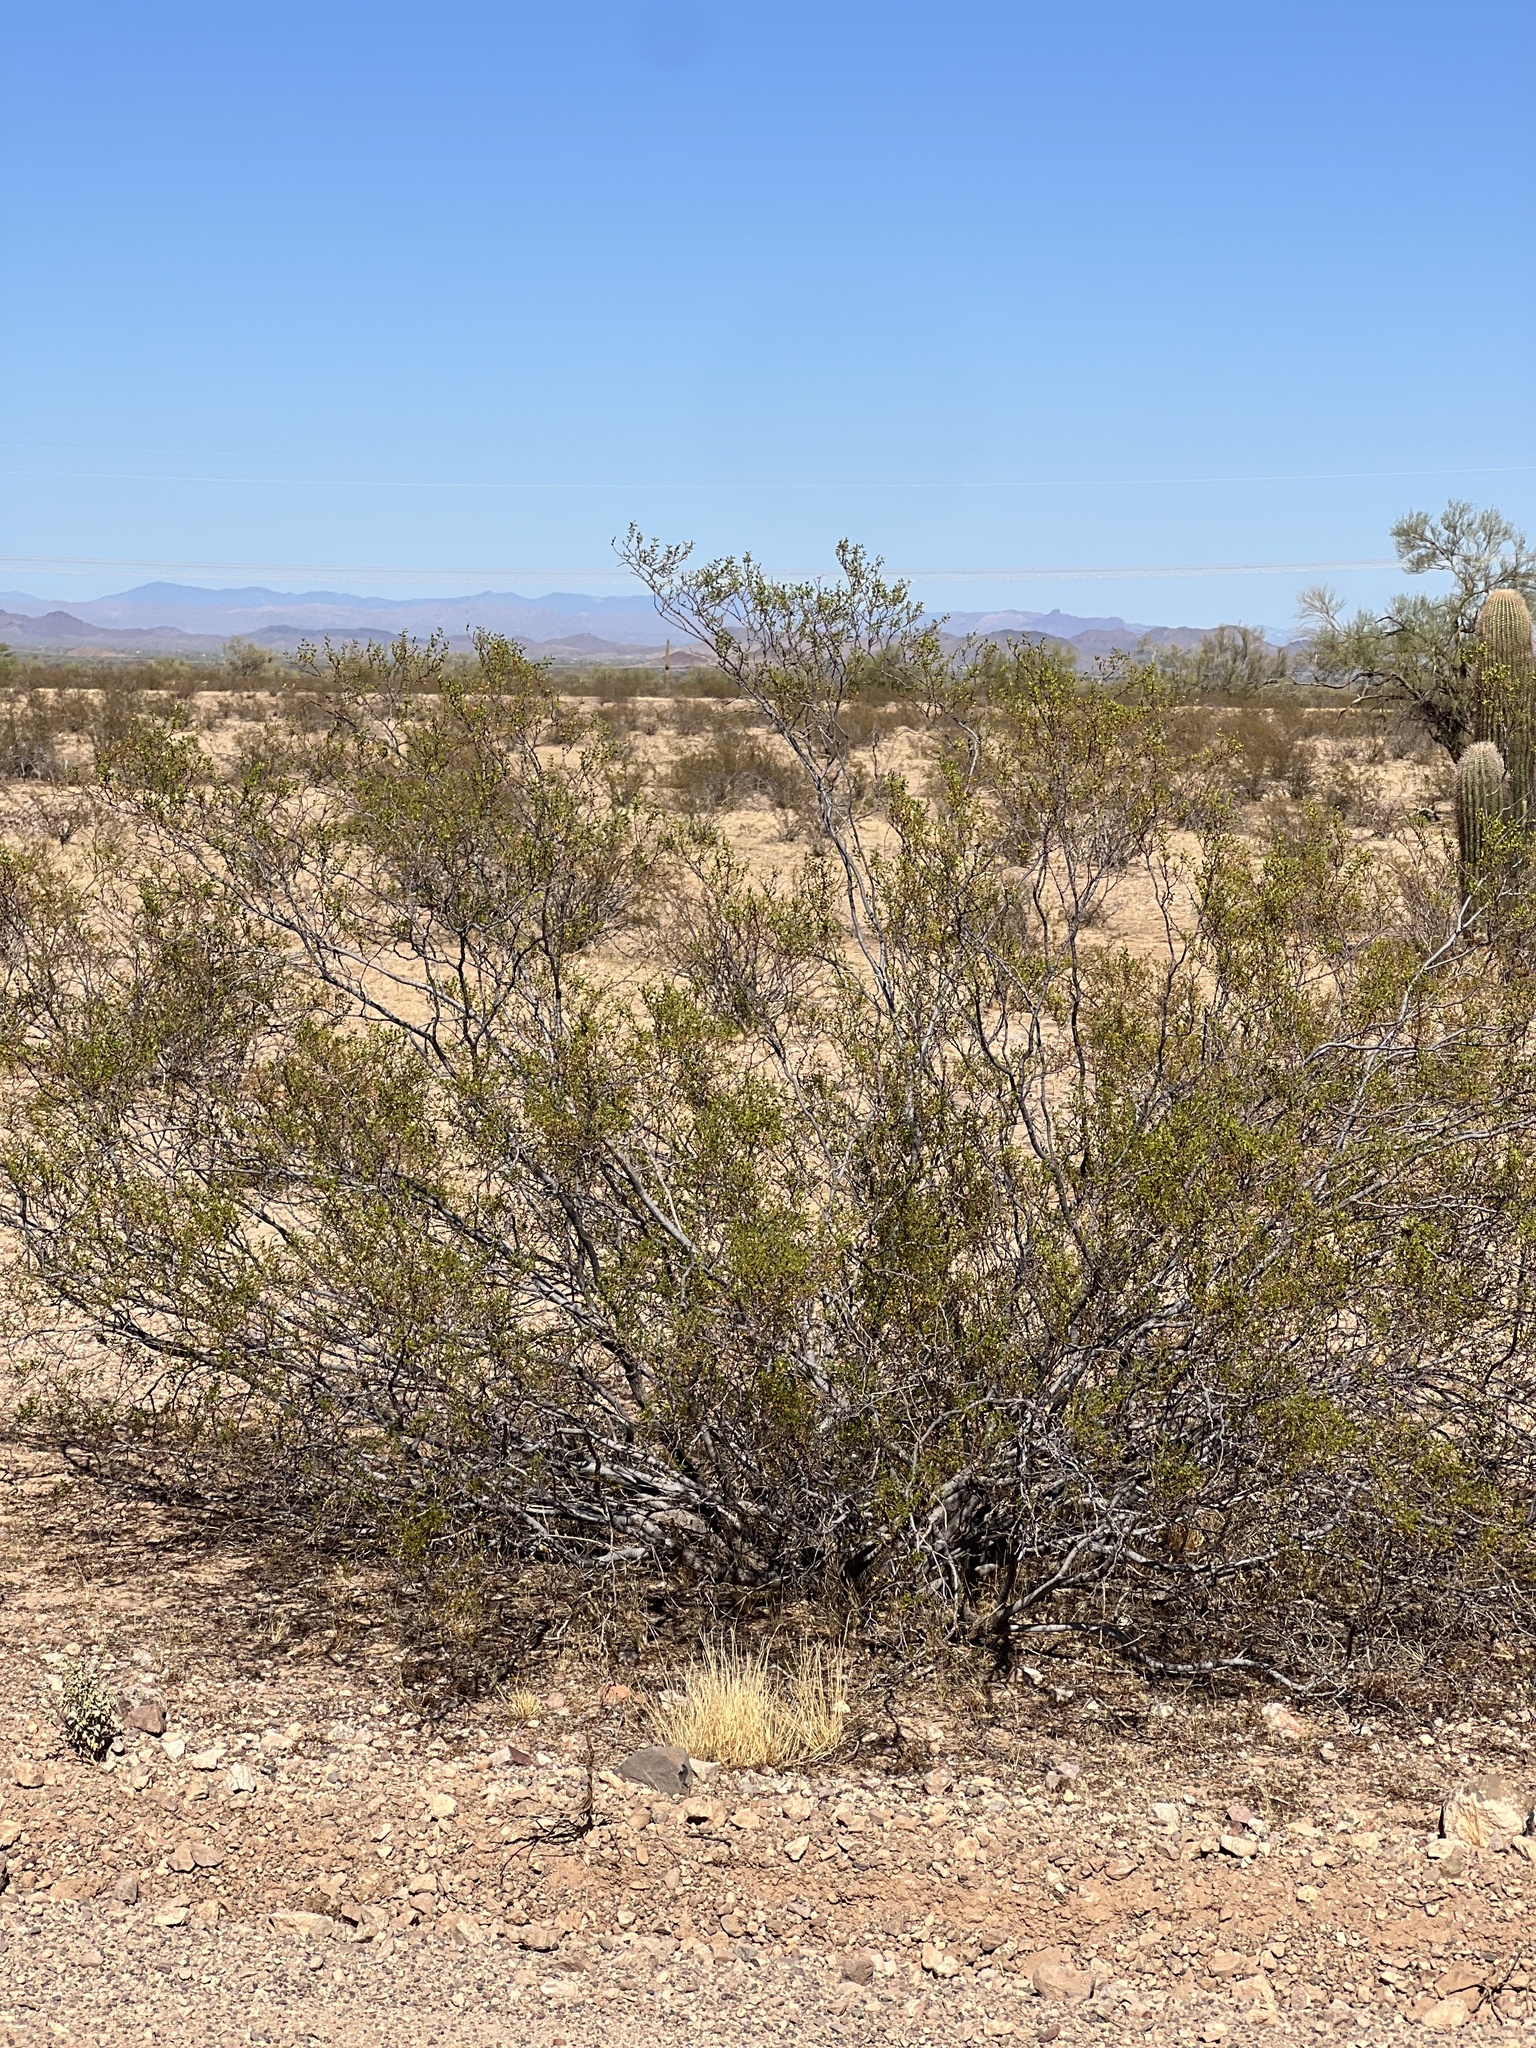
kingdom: Plantae
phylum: Tracheophyta
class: Magnoliopsida
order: Zygophyllales
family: Zygophyllaceae
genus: Larrea
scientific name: Larrea tridentata
